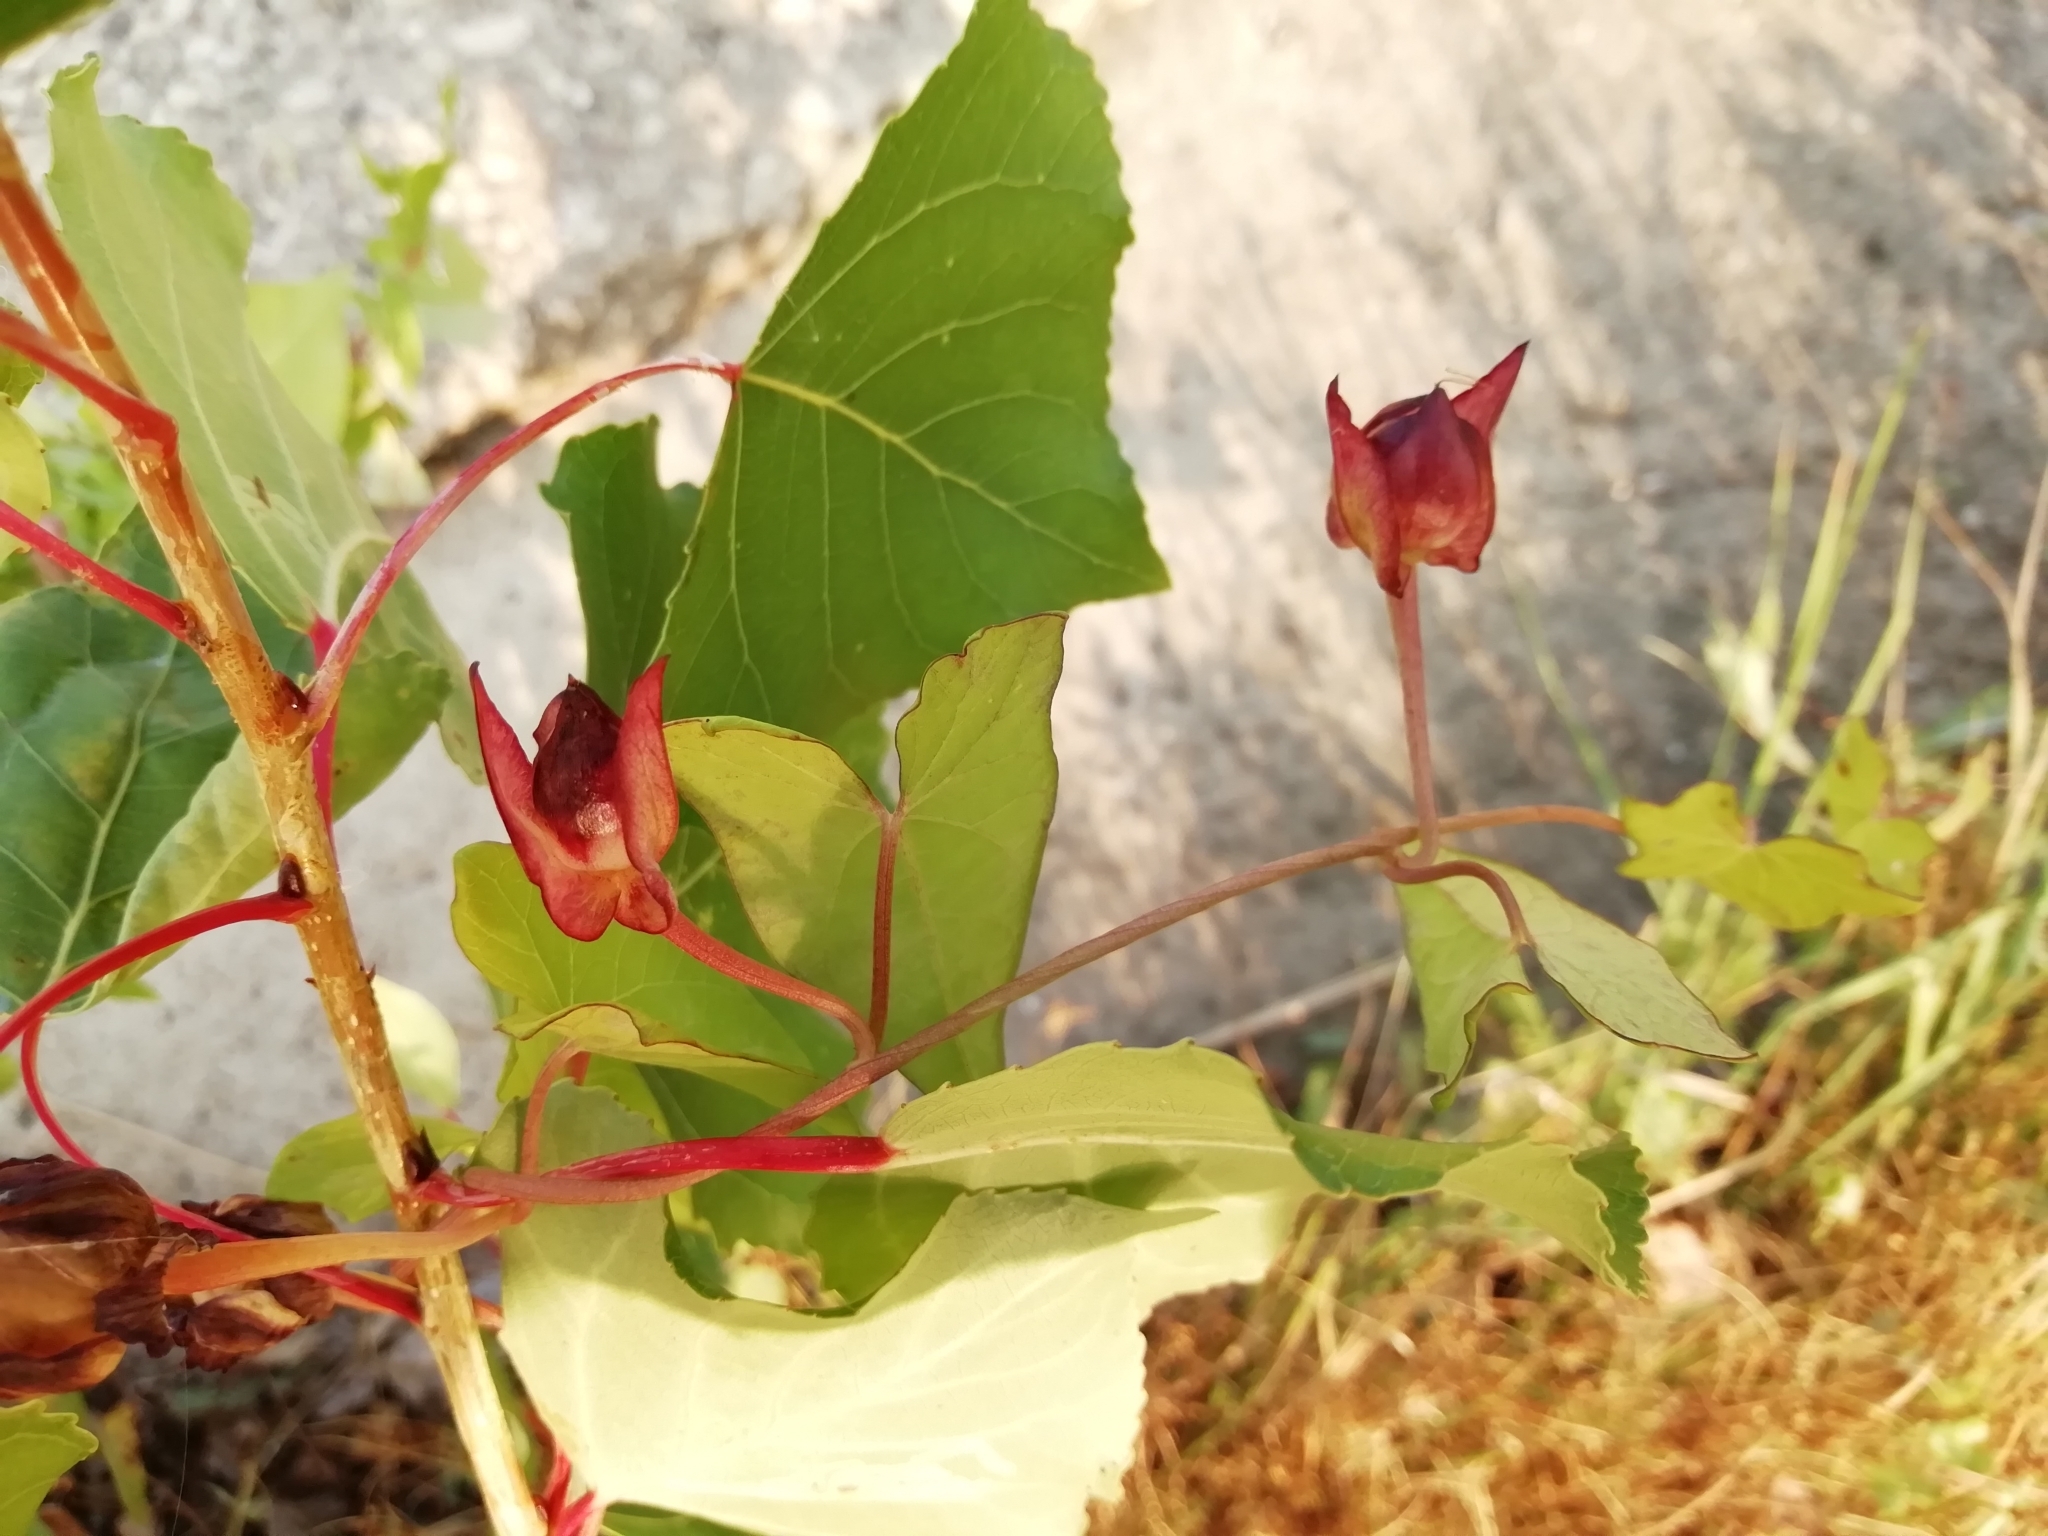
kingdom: Plantae
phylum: Tracheophyta
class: Magnoliopsida
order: Solanales
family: Convolvulaceae
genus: Calystegia
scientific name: Calystegia sepium
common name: Hedge bindweed
